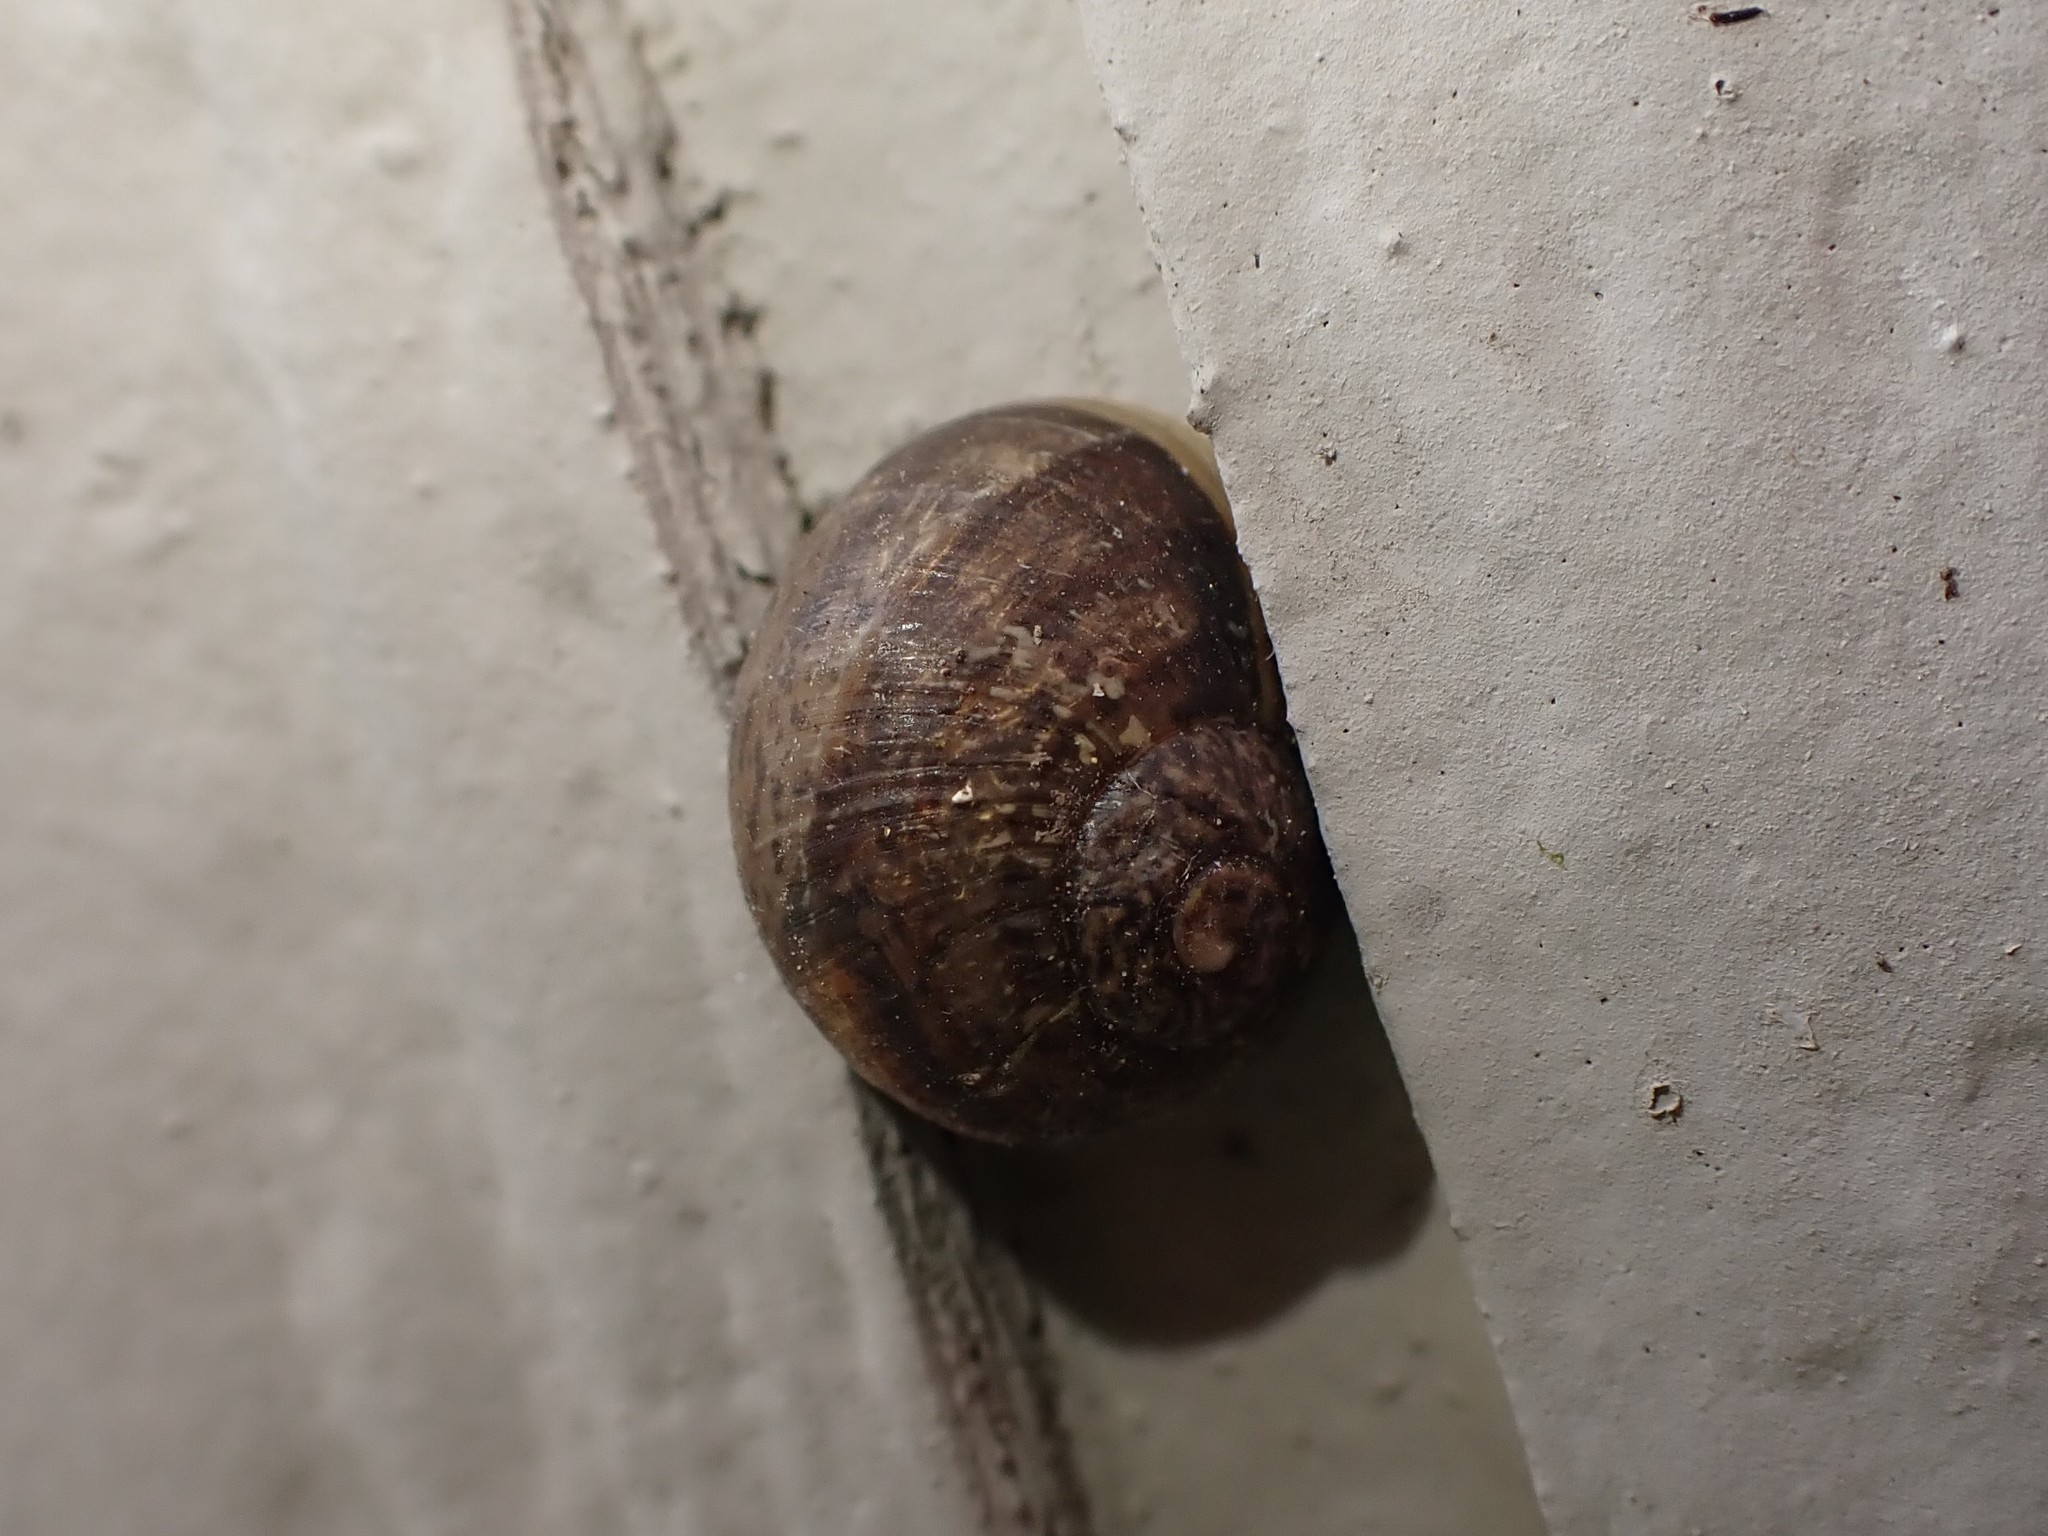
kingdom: Animalia
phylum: Mollusca
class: Gastropoda
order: Stylommatophora
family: Helicidae
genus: Cornu
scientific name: Cornu aspersum
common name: Brown garden snail
